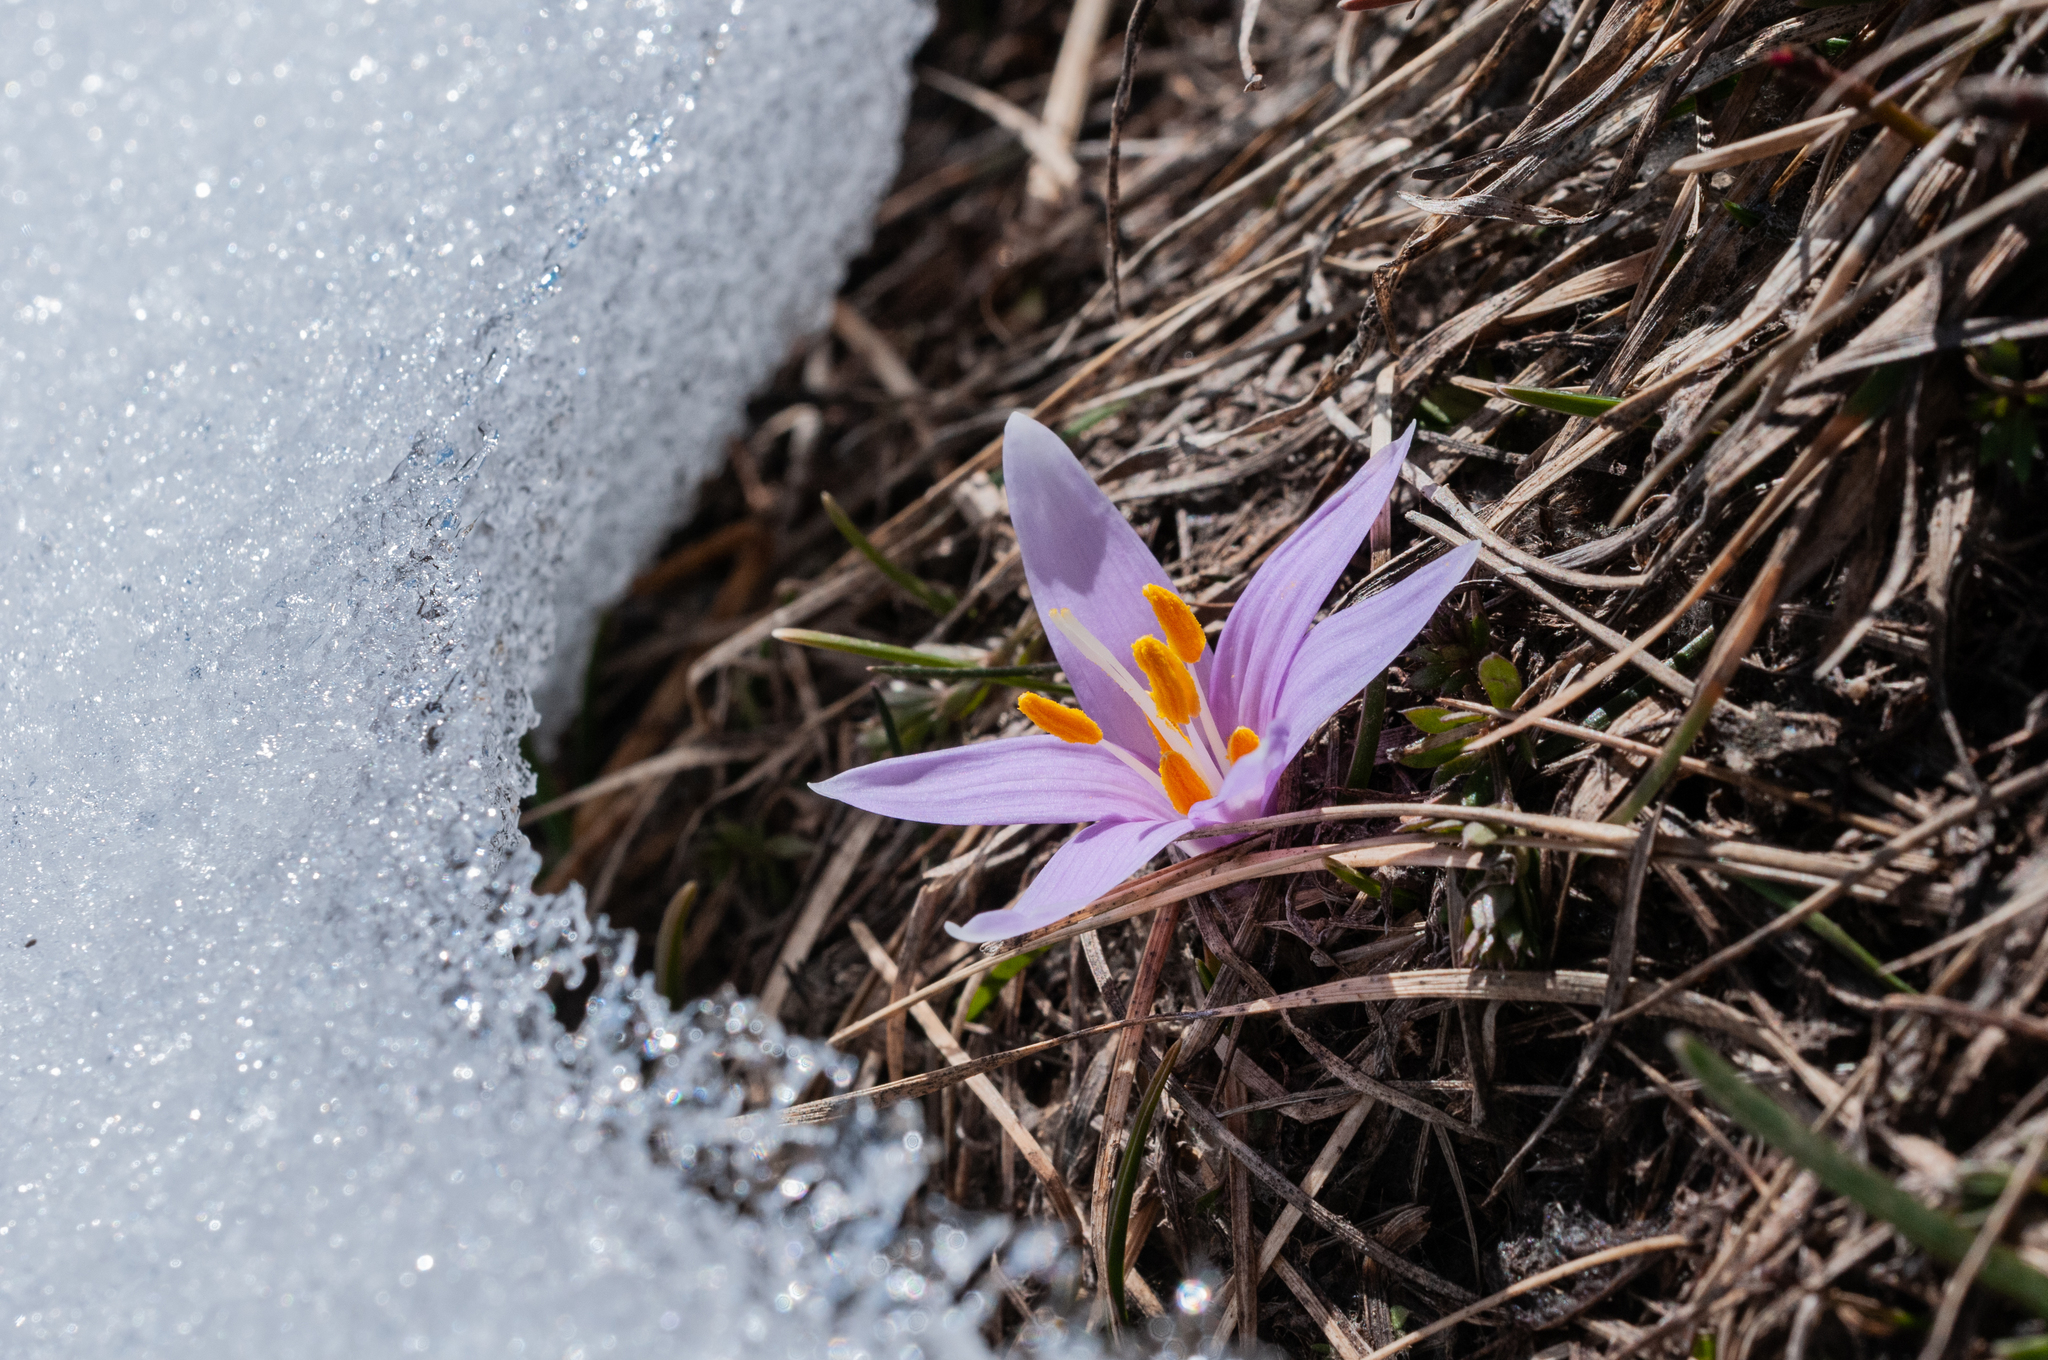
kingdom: Plantae
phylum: Tracheophyta
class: Liliopsida
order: Liliales
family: Colchicaceae
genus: Colchicum
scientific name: Colchicum bulbocodium
